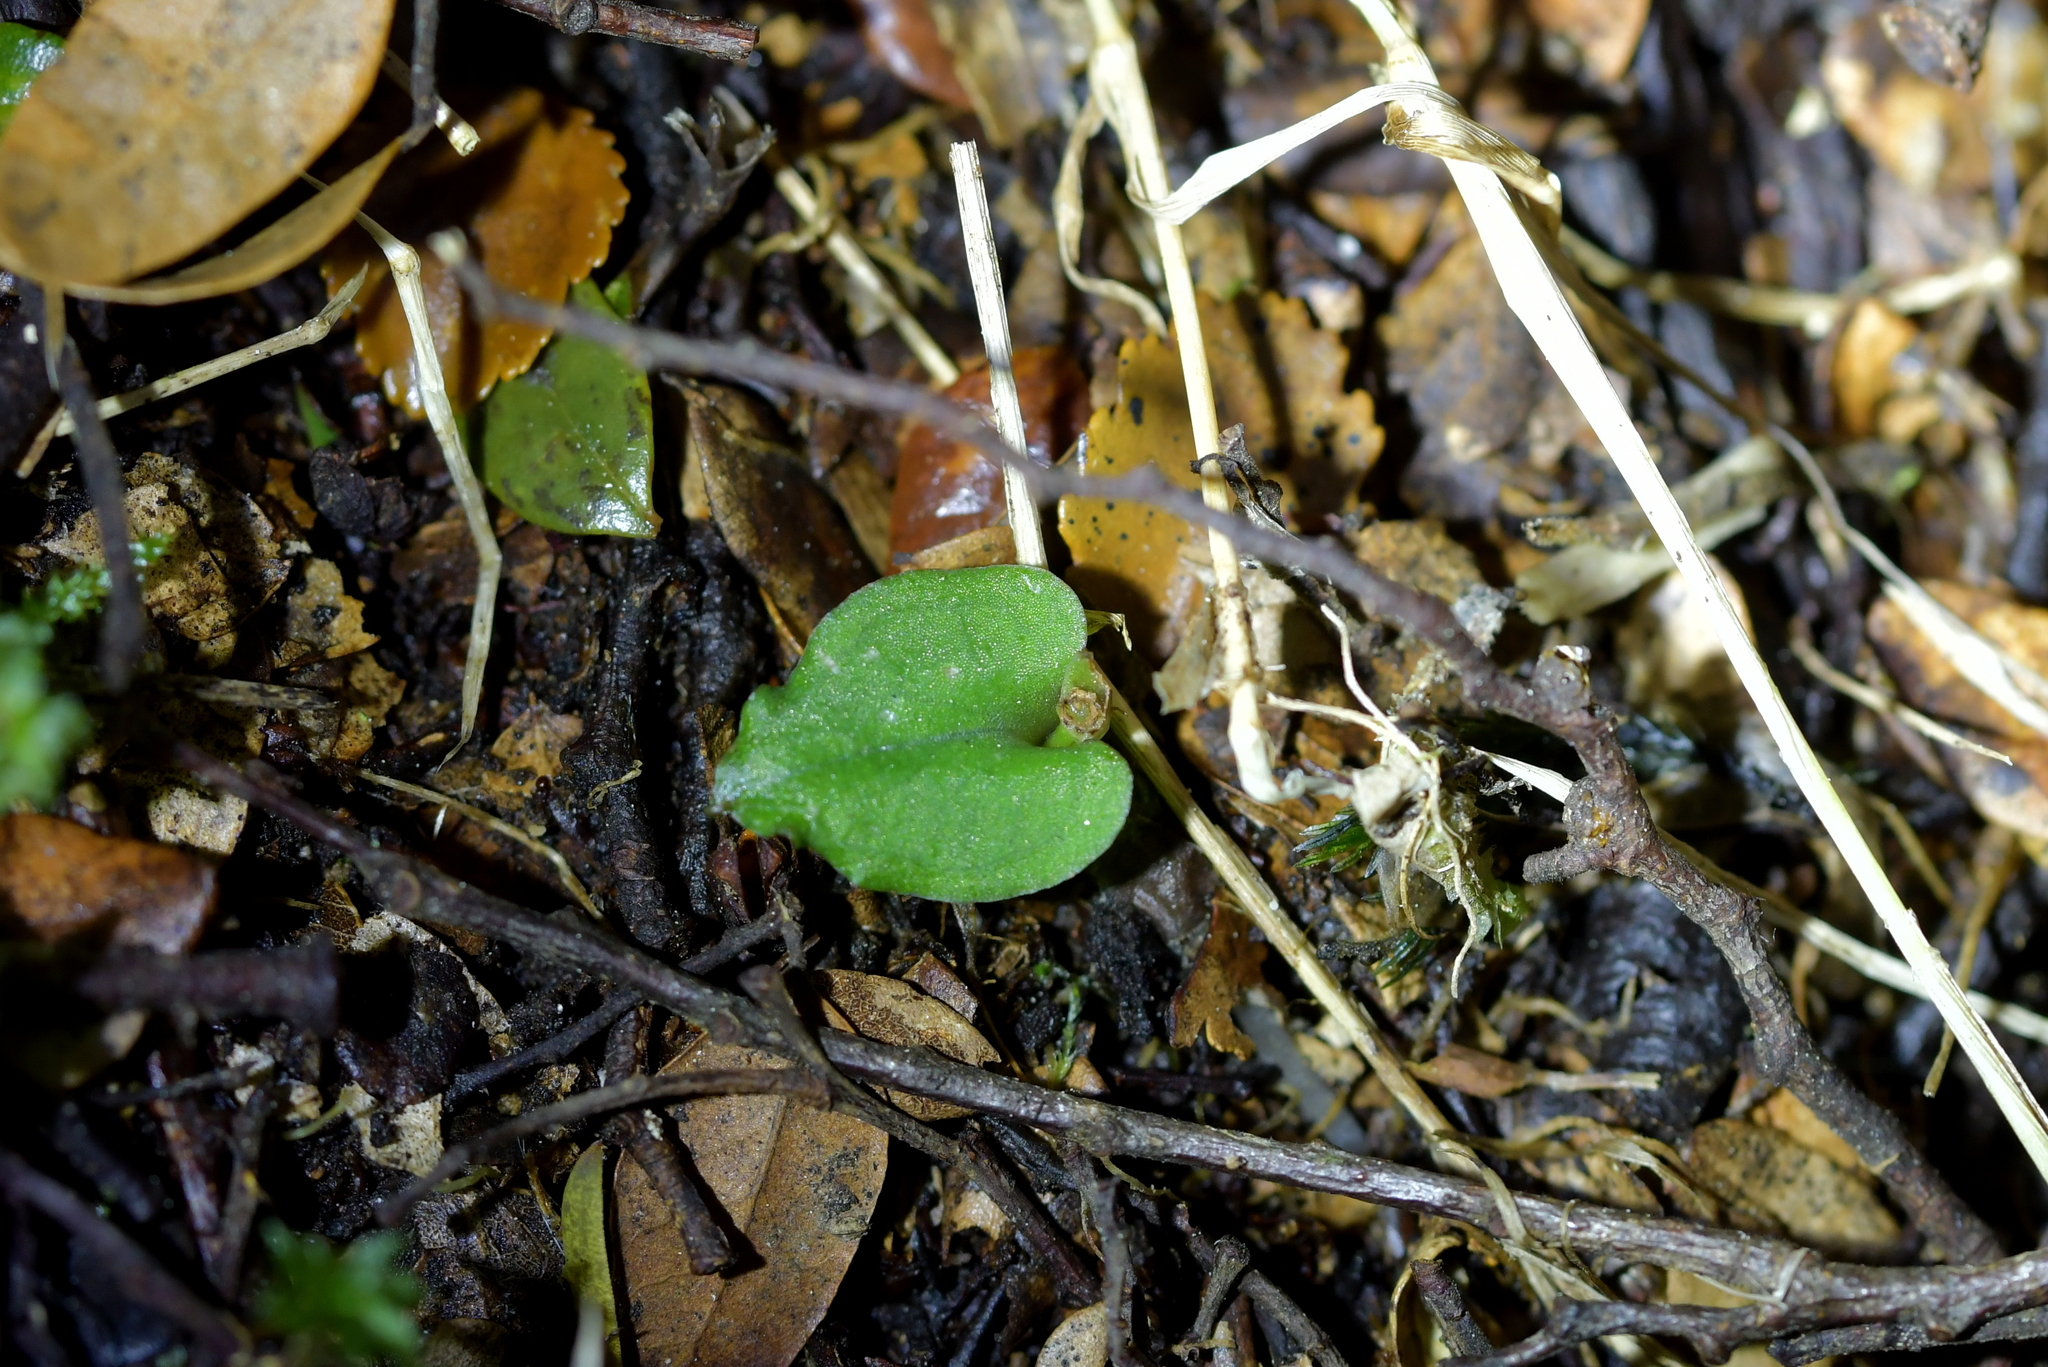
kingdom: Plantae
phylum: Tracheophyta
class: Liliopsida
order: Asparagales
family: Orchidaceae
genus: Corybas
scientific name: Corybas cheesemanii
